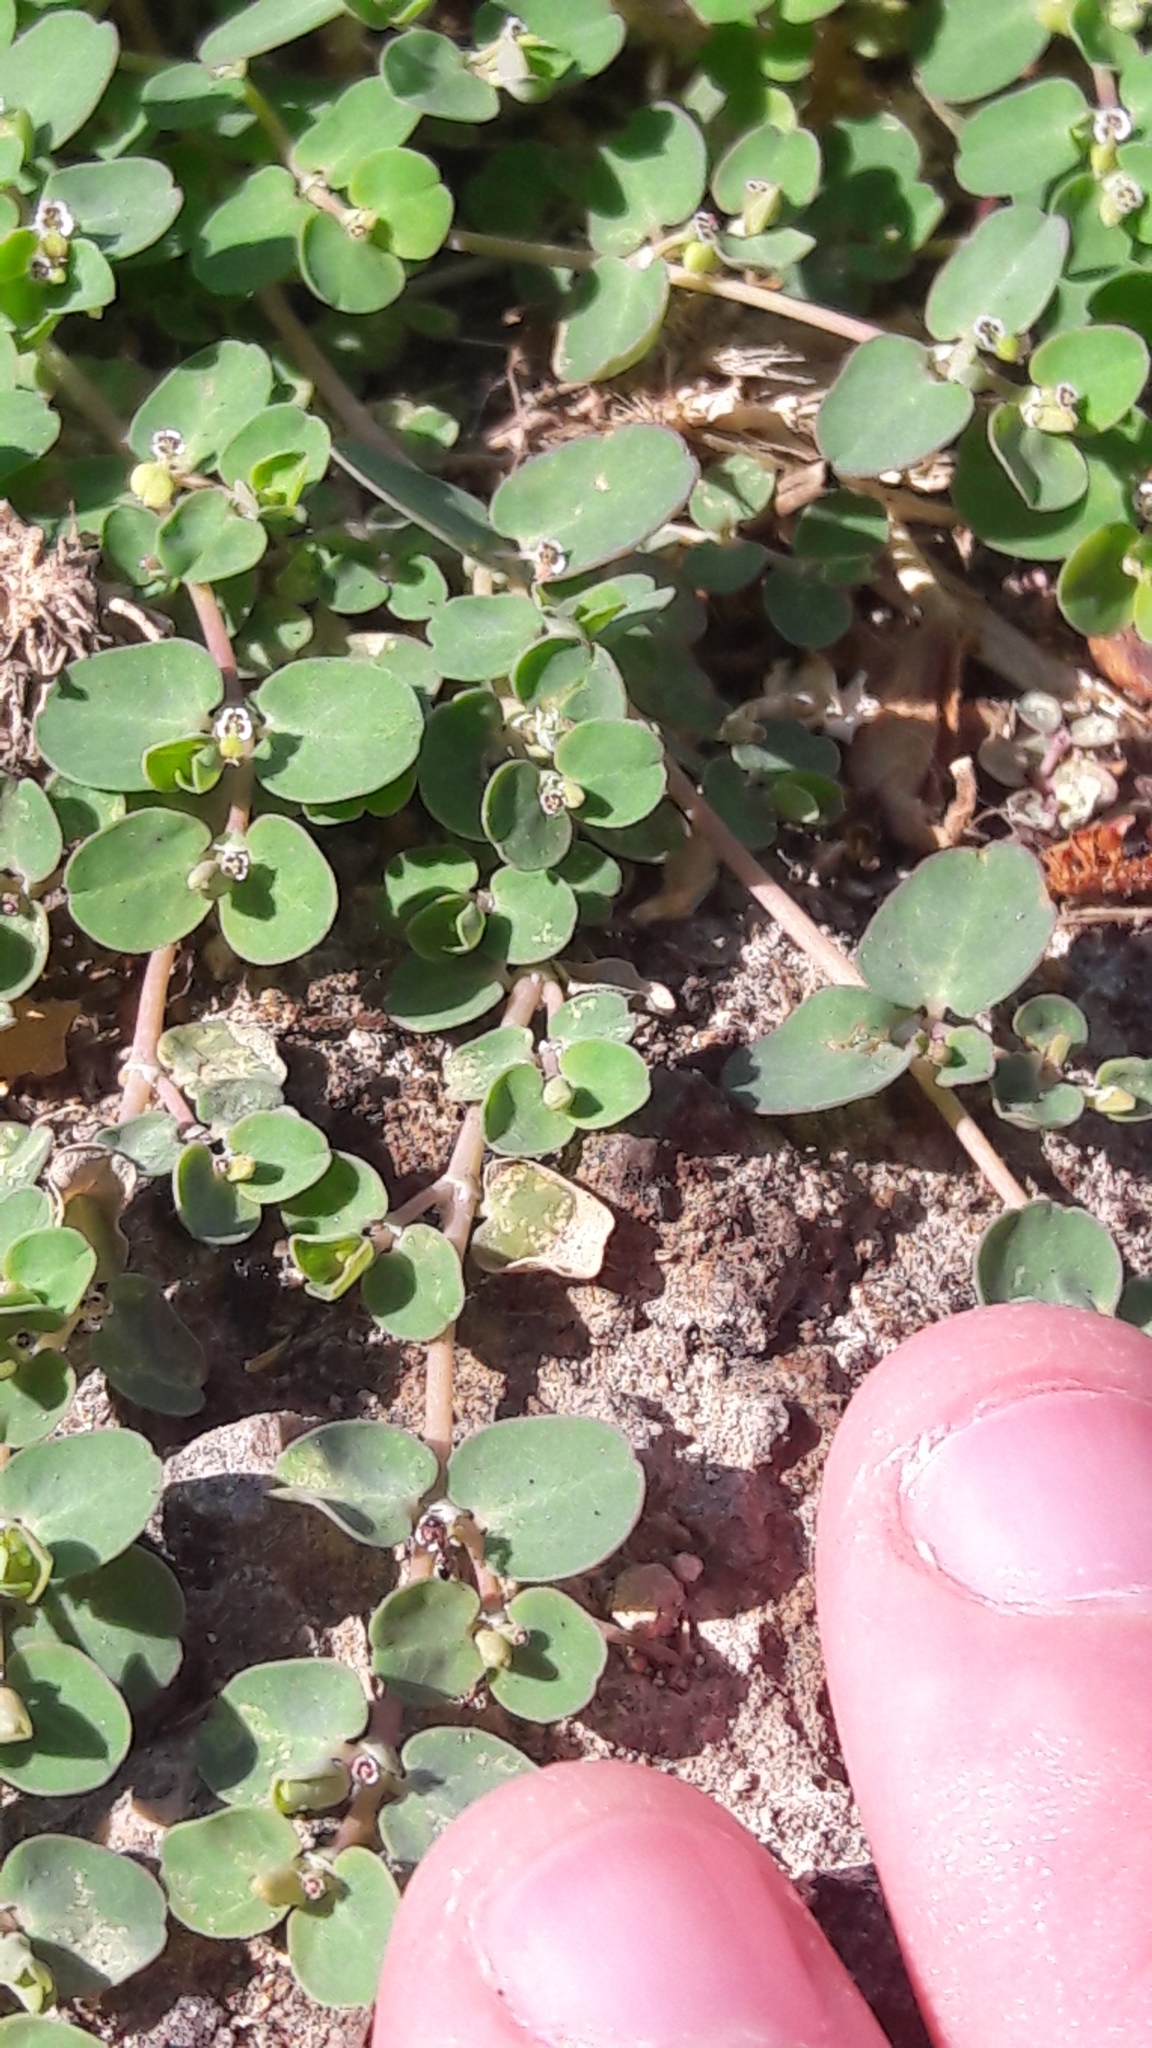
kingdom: Plantae
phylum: Tracheophyta
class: Magnoliopsida
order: Malpighiales
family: Euphorbiaceae
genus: Euphorbia
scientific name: Euphorbia serpens
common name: Matted sandmat
